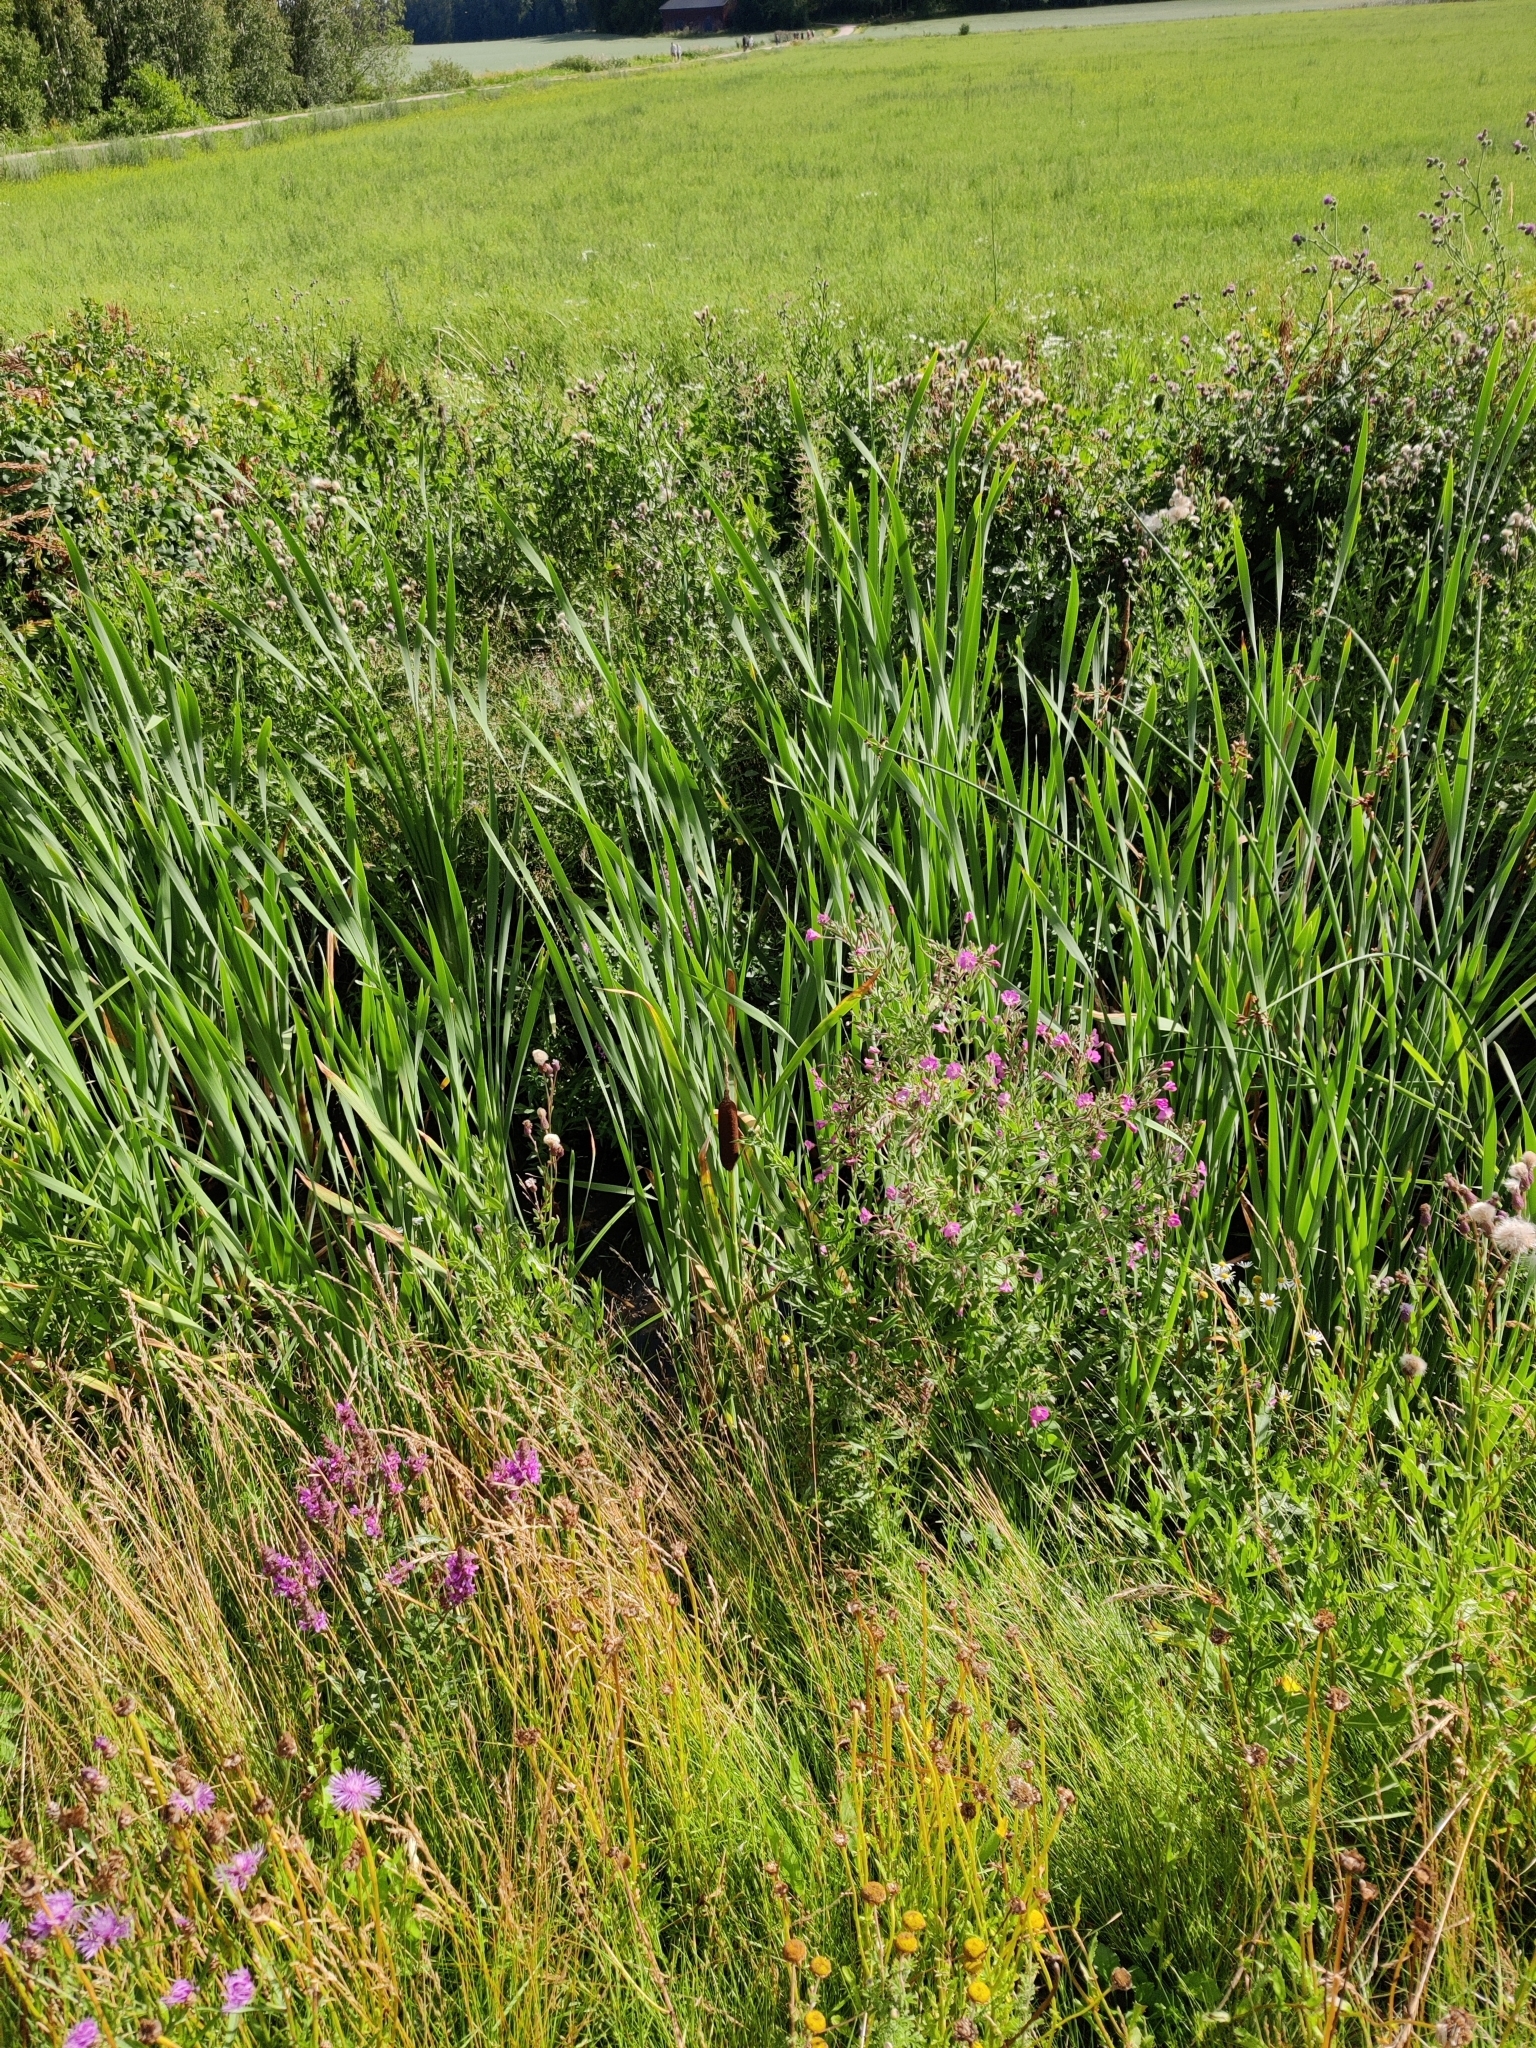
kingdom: Plantae
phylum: Tracheophyta
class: Liliopsida
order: Poales
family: Typhaceae
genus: Typha
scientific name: Typha latifolia
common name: Broadleaf cattail
